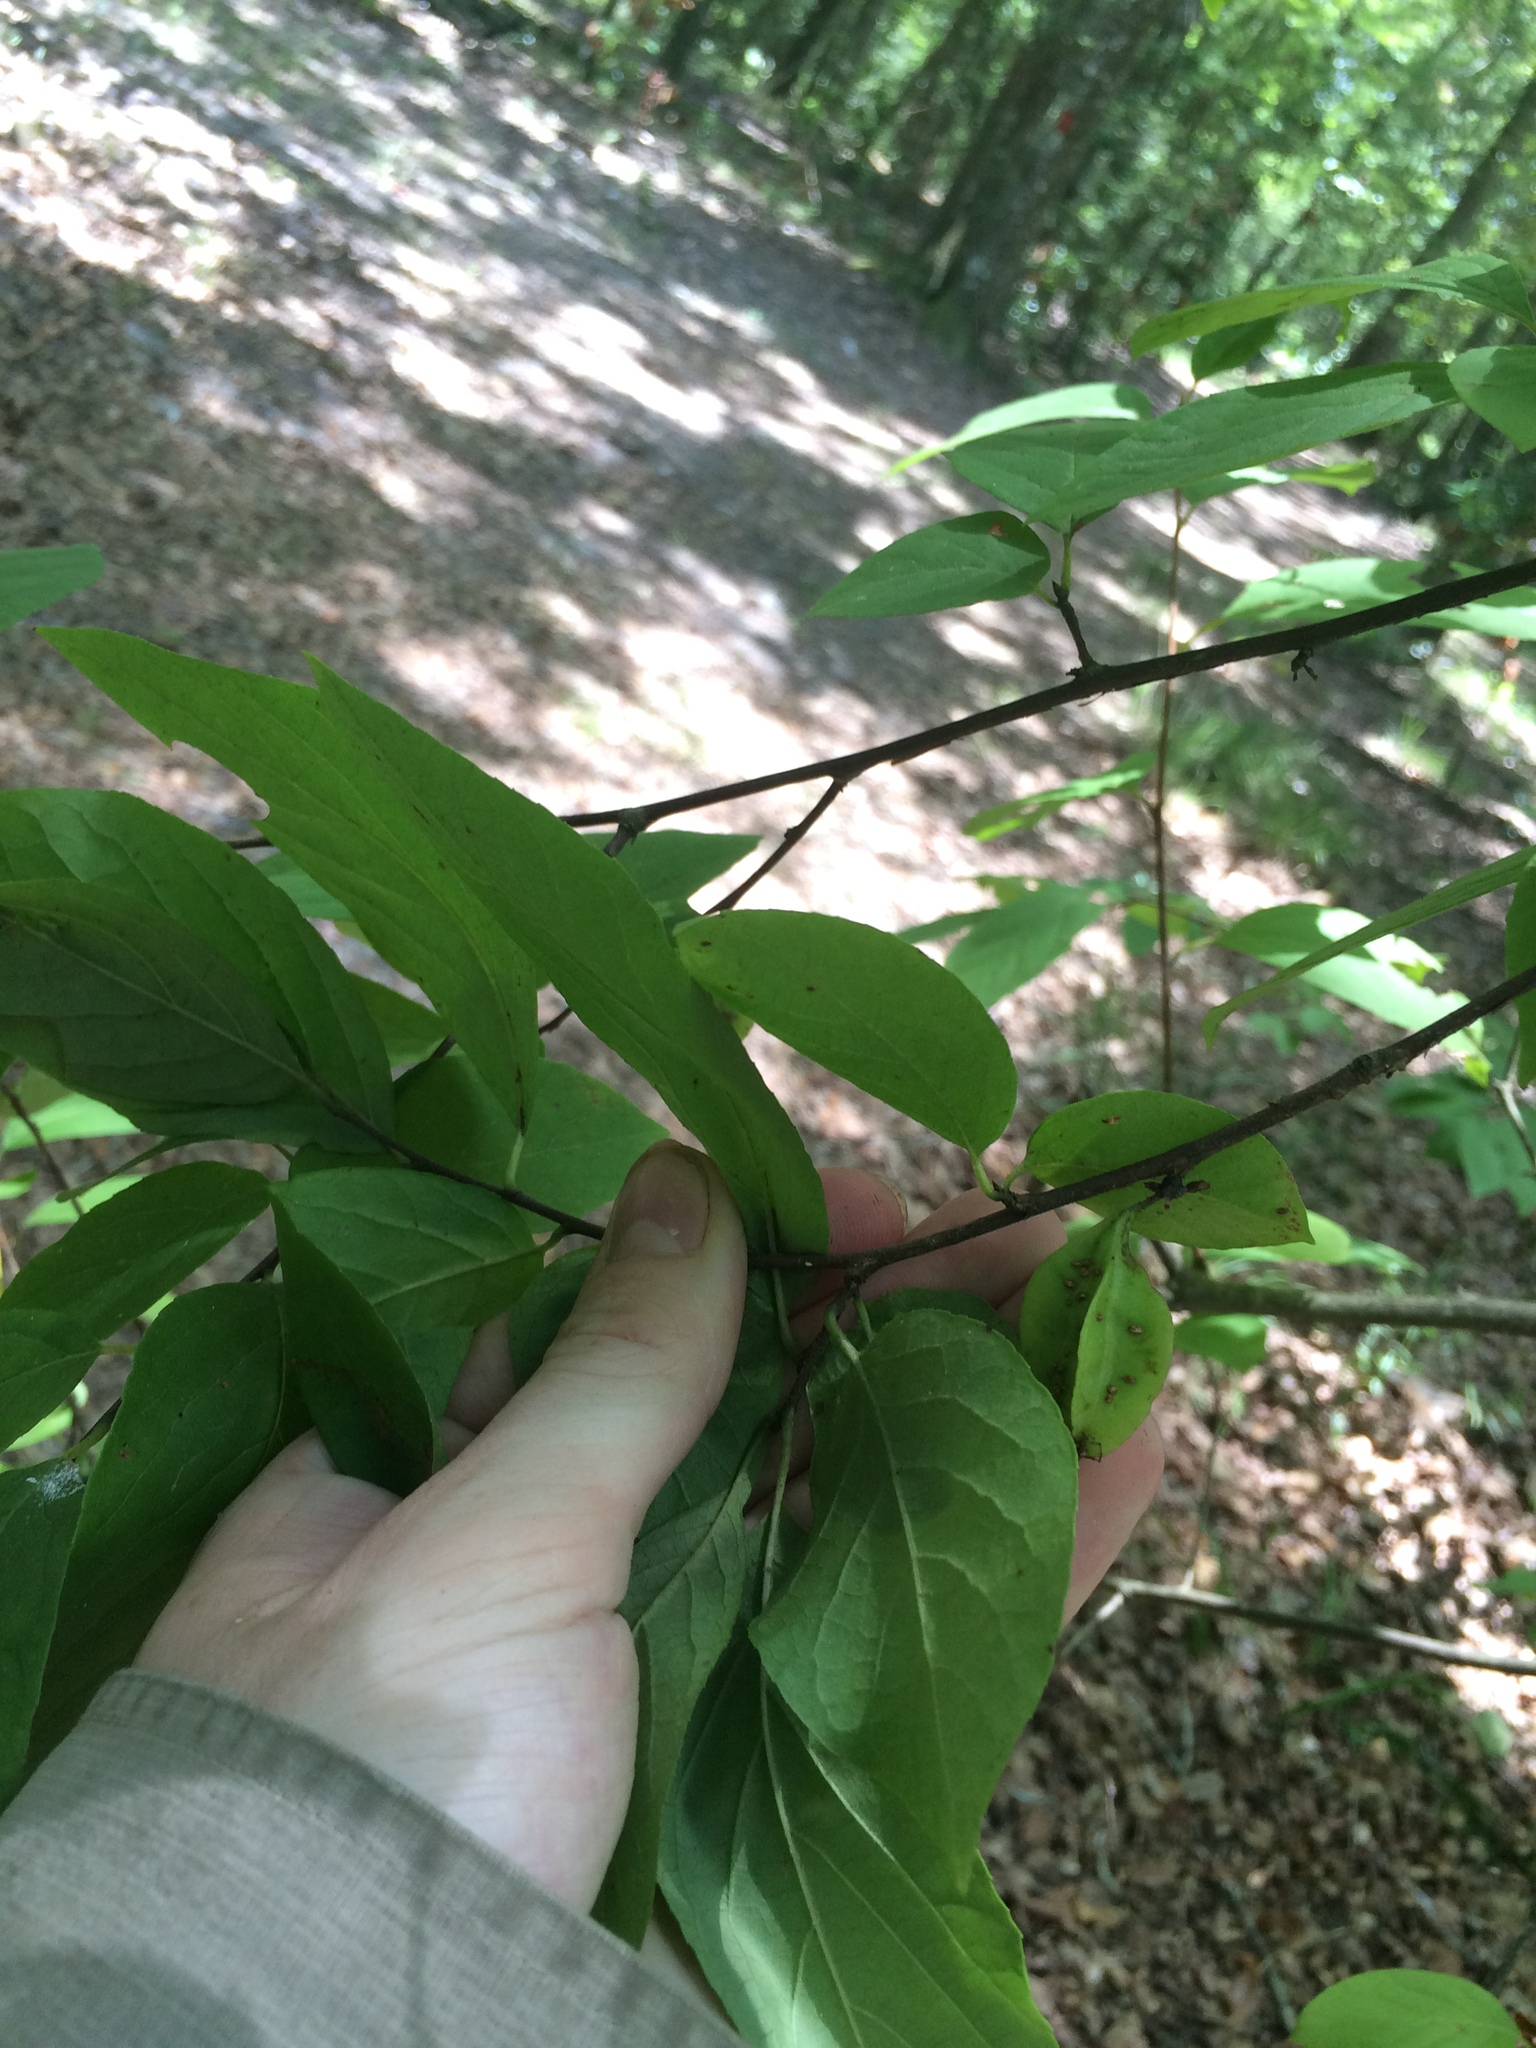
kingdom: Plantae
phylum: Tracheophyta
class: Magnoliopsida
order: Ericales
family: Styracaceae
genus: Halesia
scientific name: Halesia carolina
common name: Carolina silverbell
